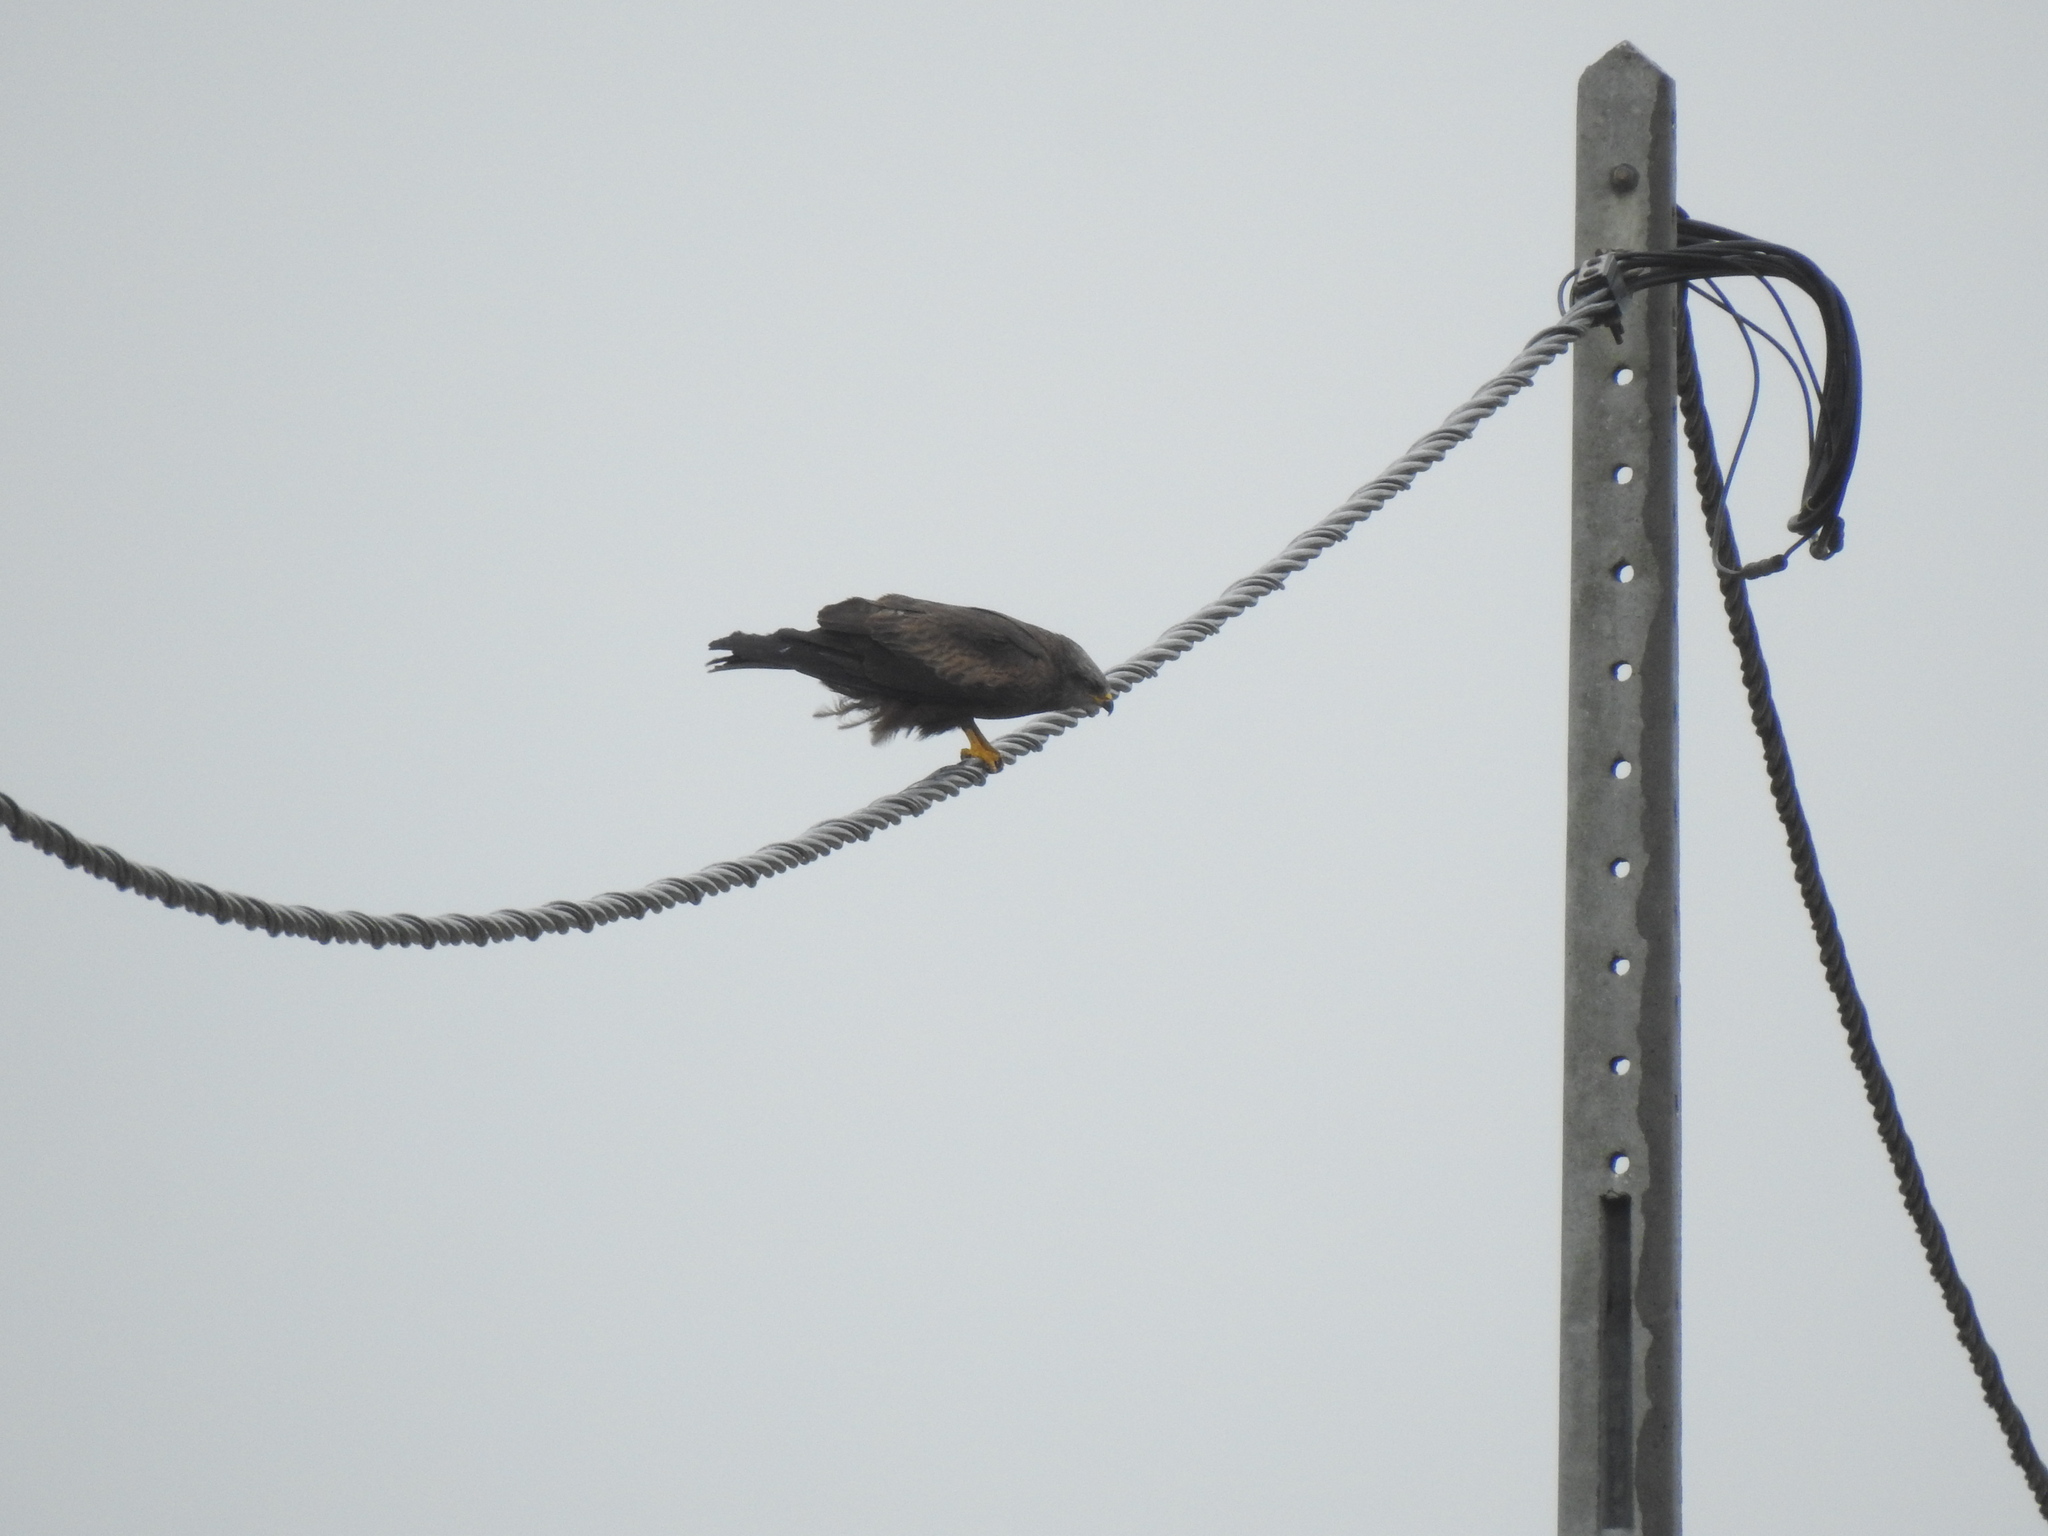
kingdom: Animalia
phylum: Chordata
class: Aves
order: Accipitriformes
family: Accipitridae
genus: Milvus
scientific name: Milvus migrans
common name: Black kite
